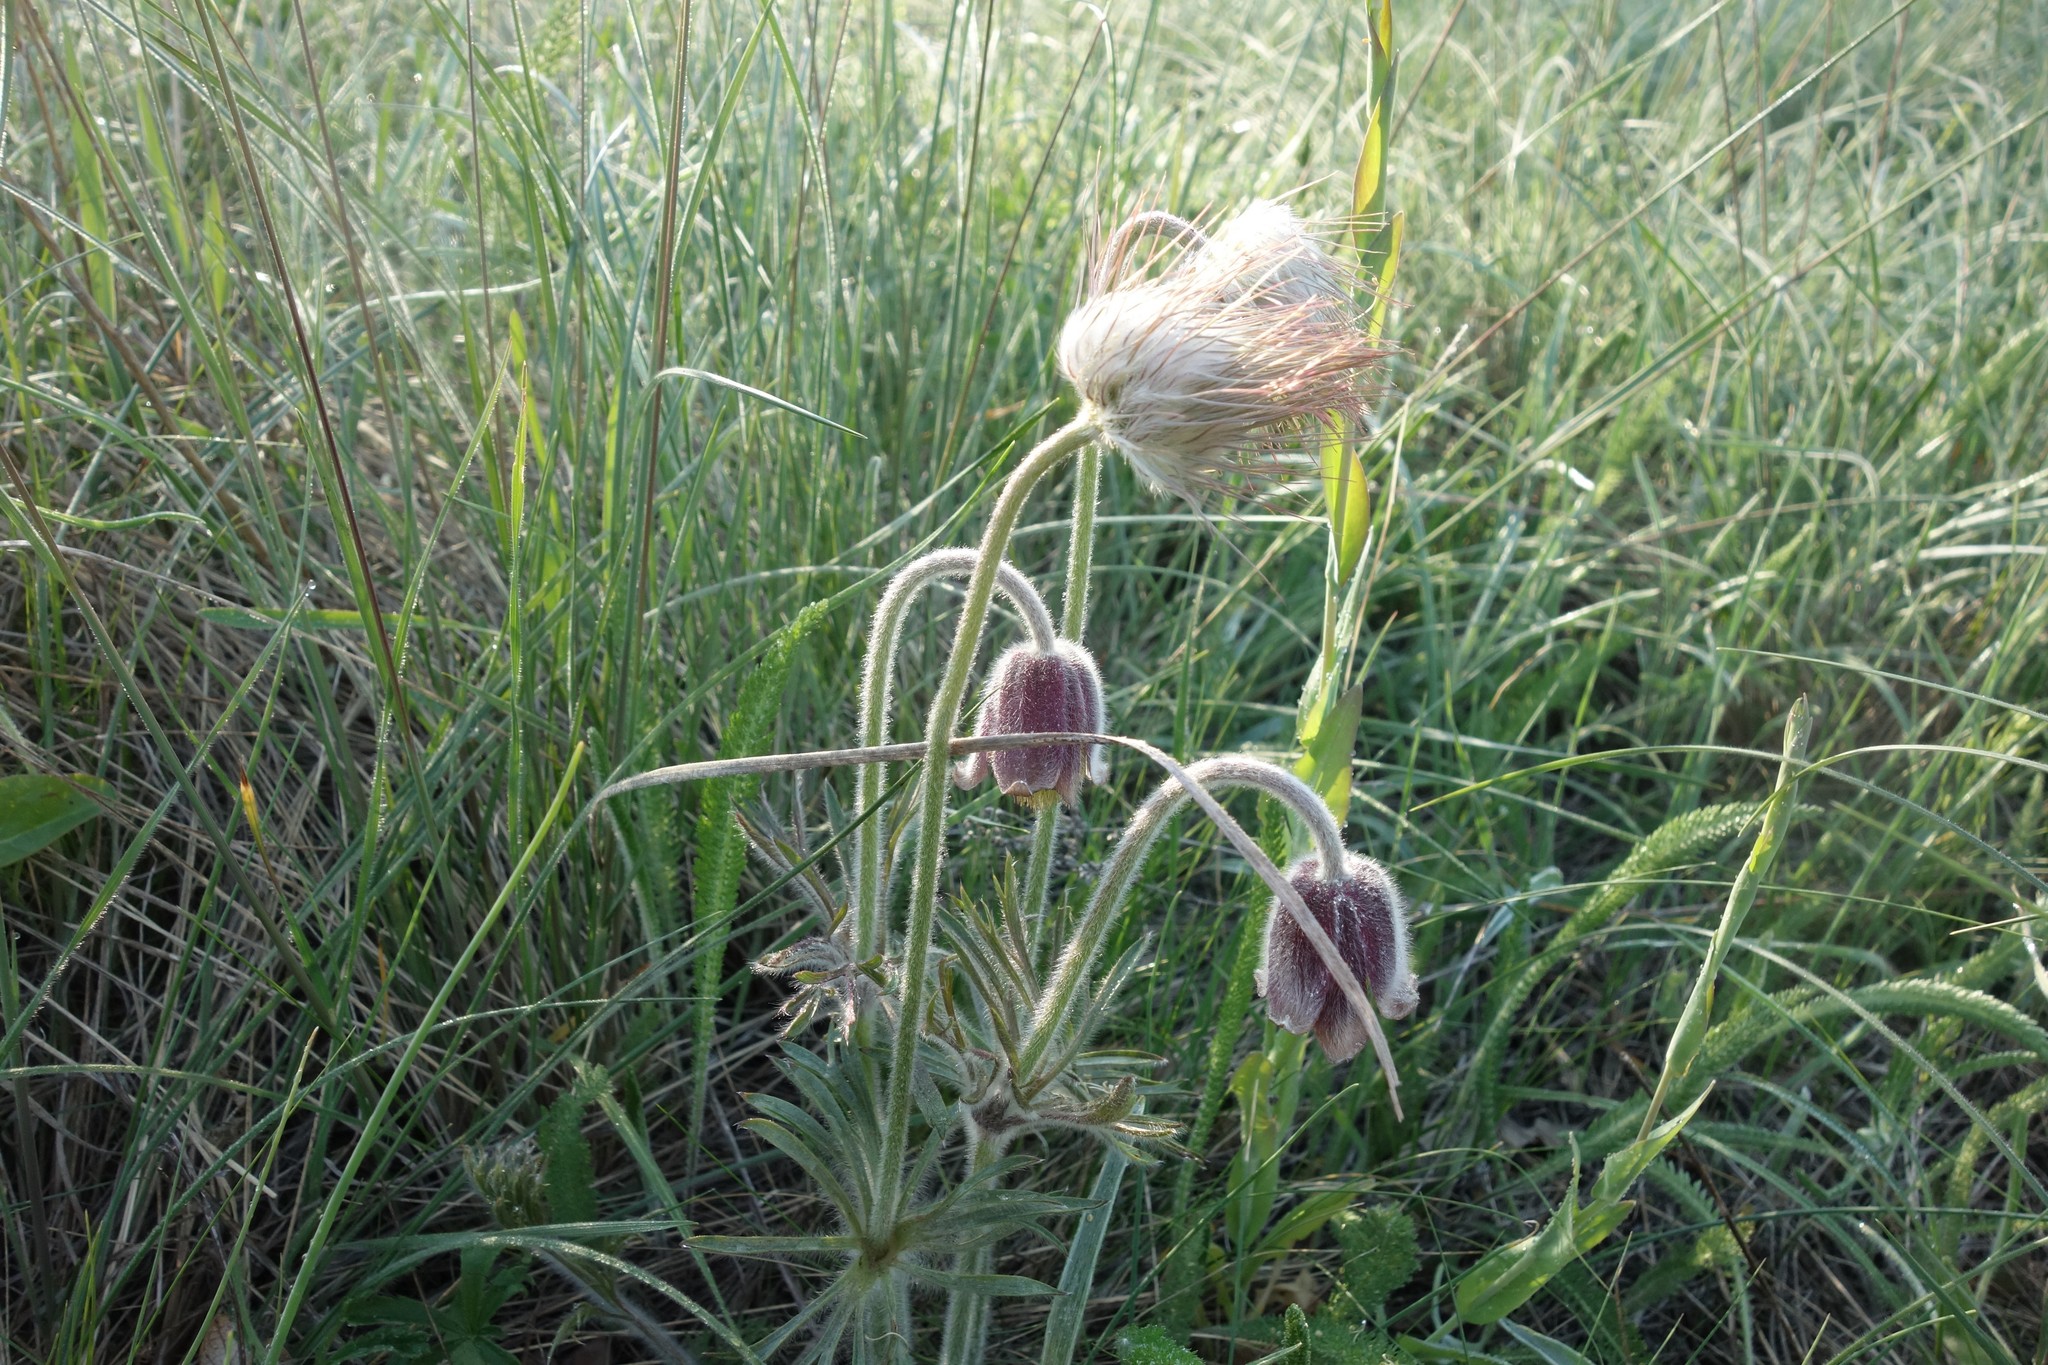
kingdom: Plantae
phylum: Tracheophyta
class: Magnoliopsida
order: Ranunculales
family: Ranunculaceae
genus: Pulsatilla
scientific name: Pulsatilla pratensis
